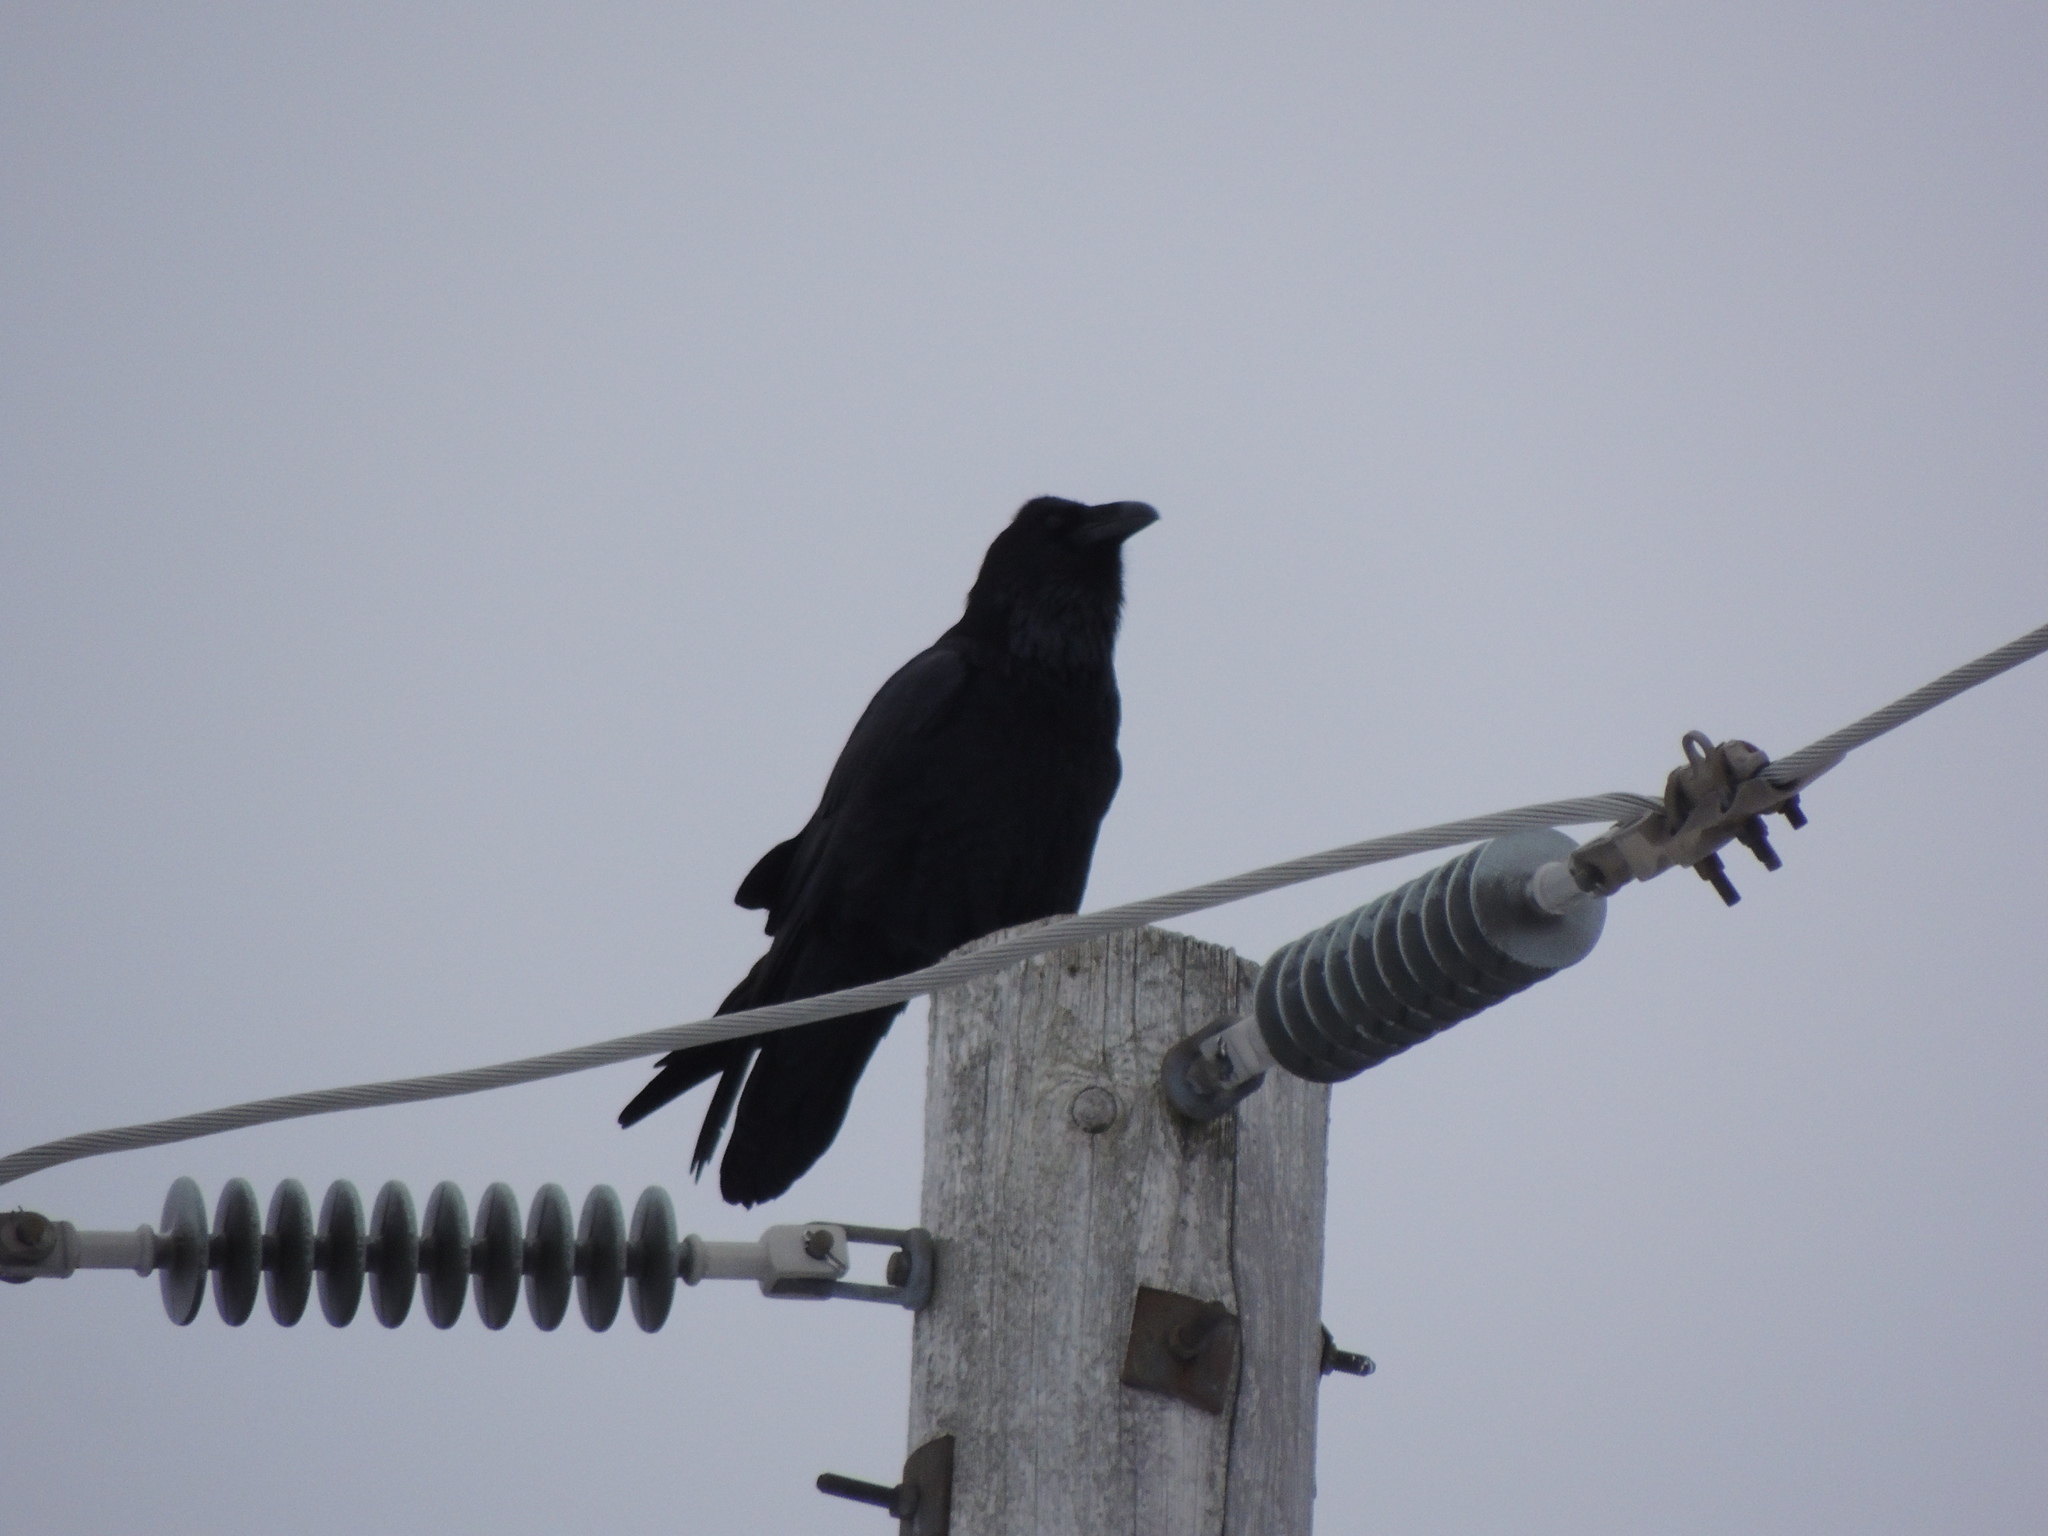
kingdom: Animalia
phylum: Chordata
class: Aves
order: Passeriformes
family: Corvidae
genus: Corvus
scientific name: Corvus corax
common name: Common raven
